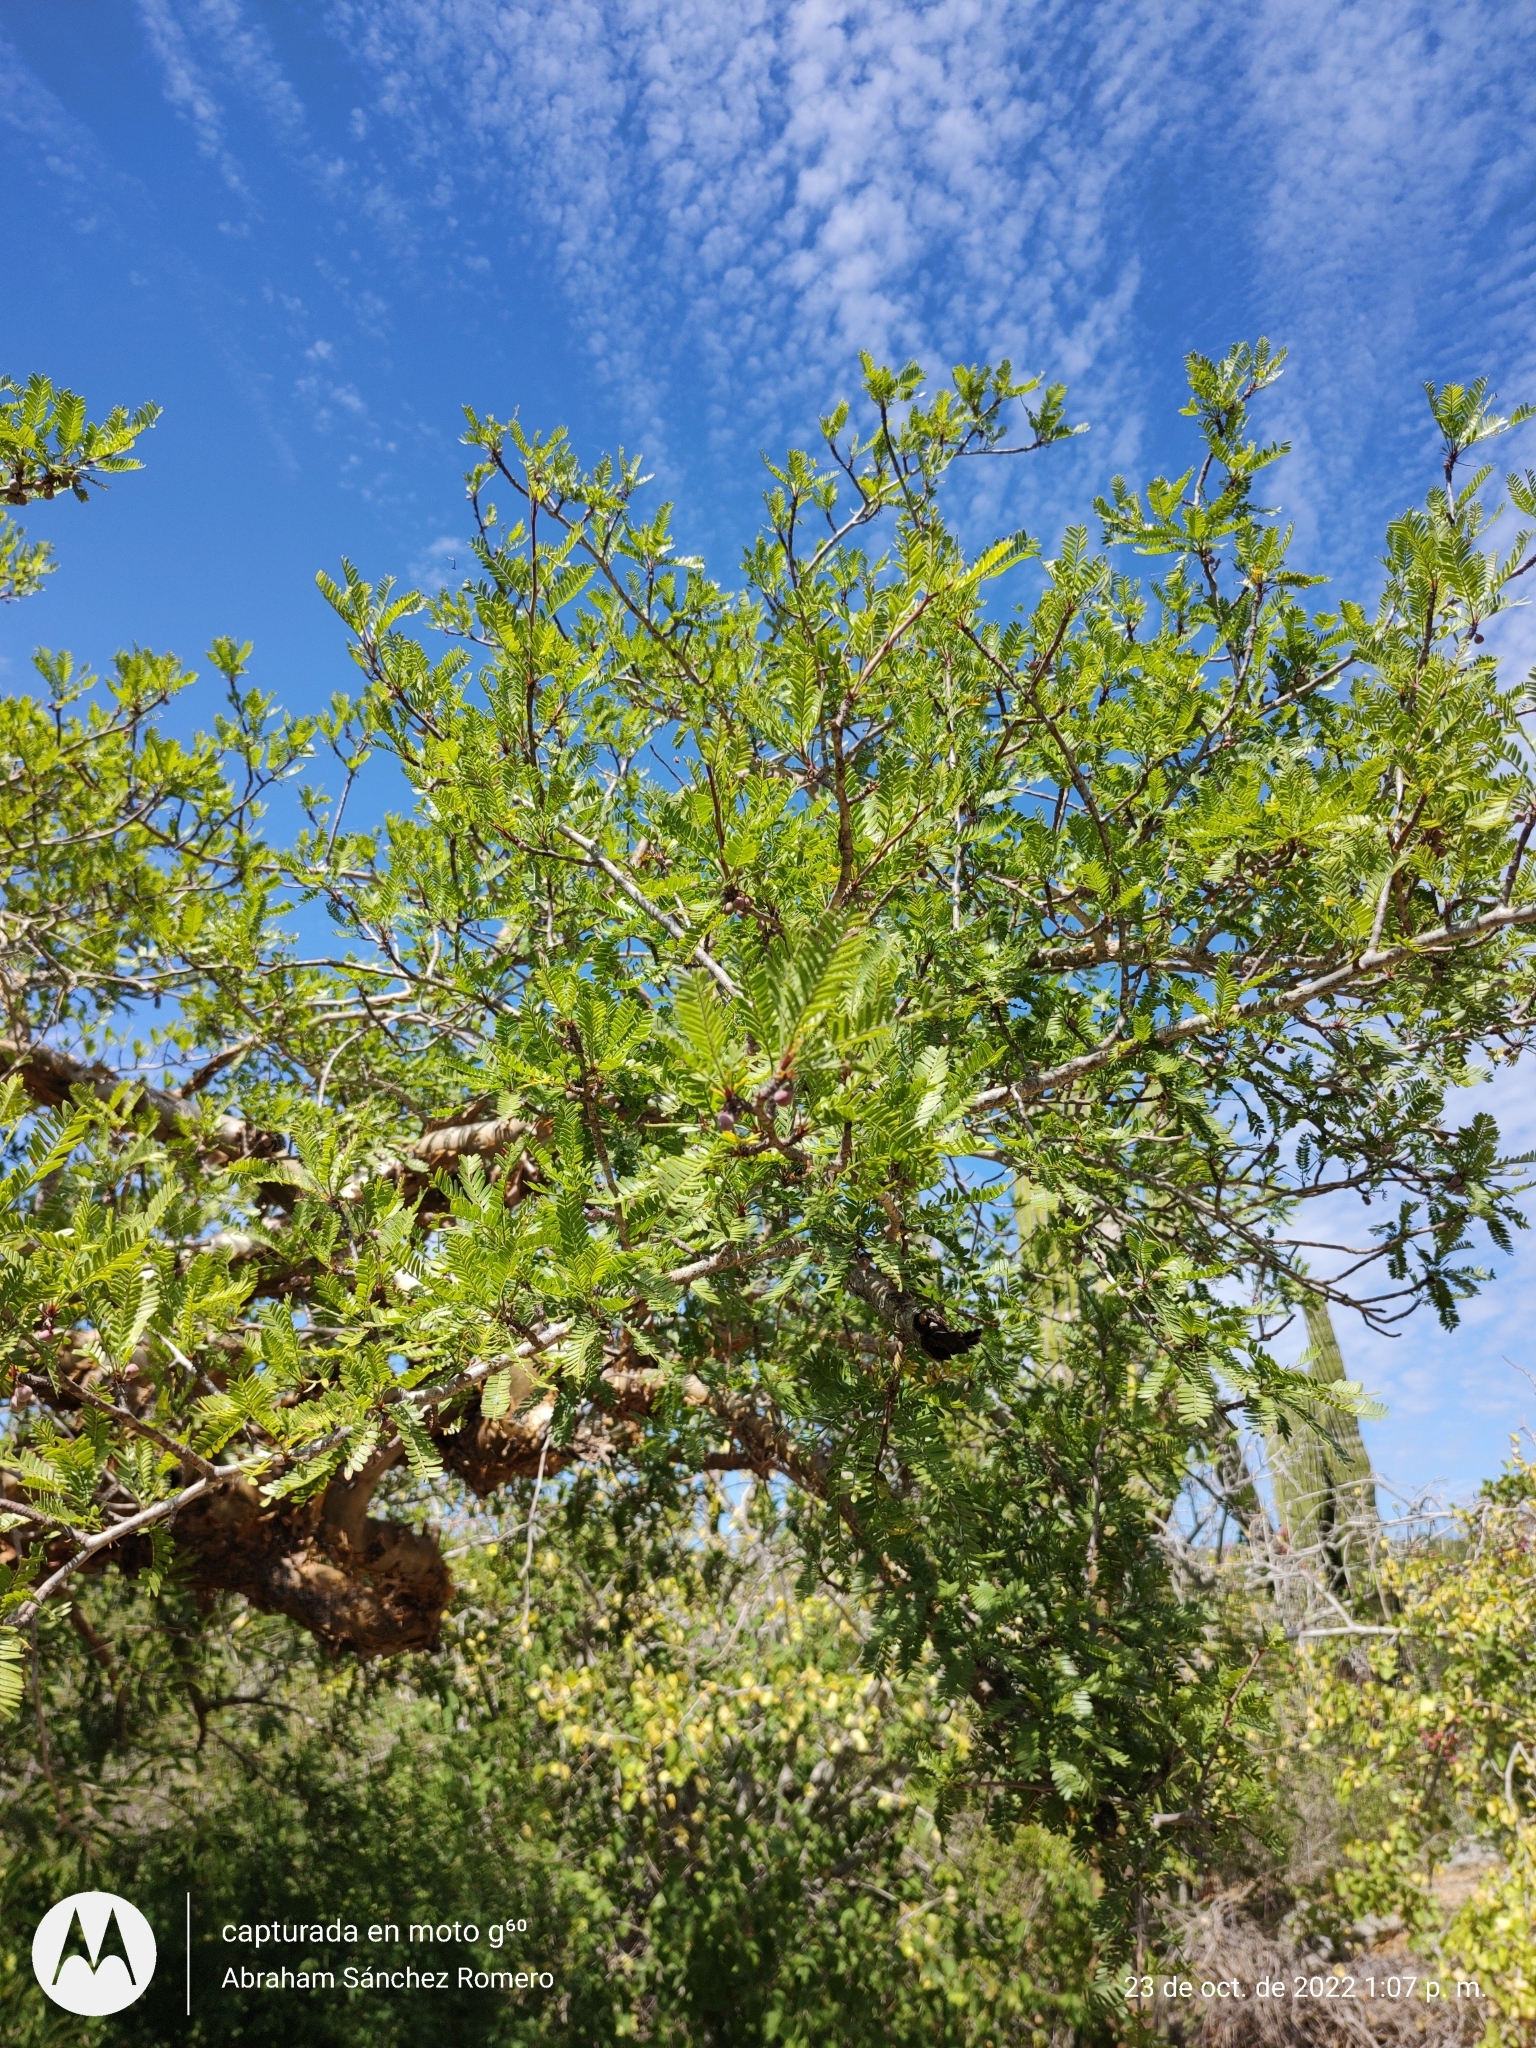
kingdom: Plantae
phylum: Tracheophyta
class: Magnoliopsida
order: Sapindales
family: Burseraceae
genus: Bursera
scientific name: Bursera microphylla
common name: Elephant tree
